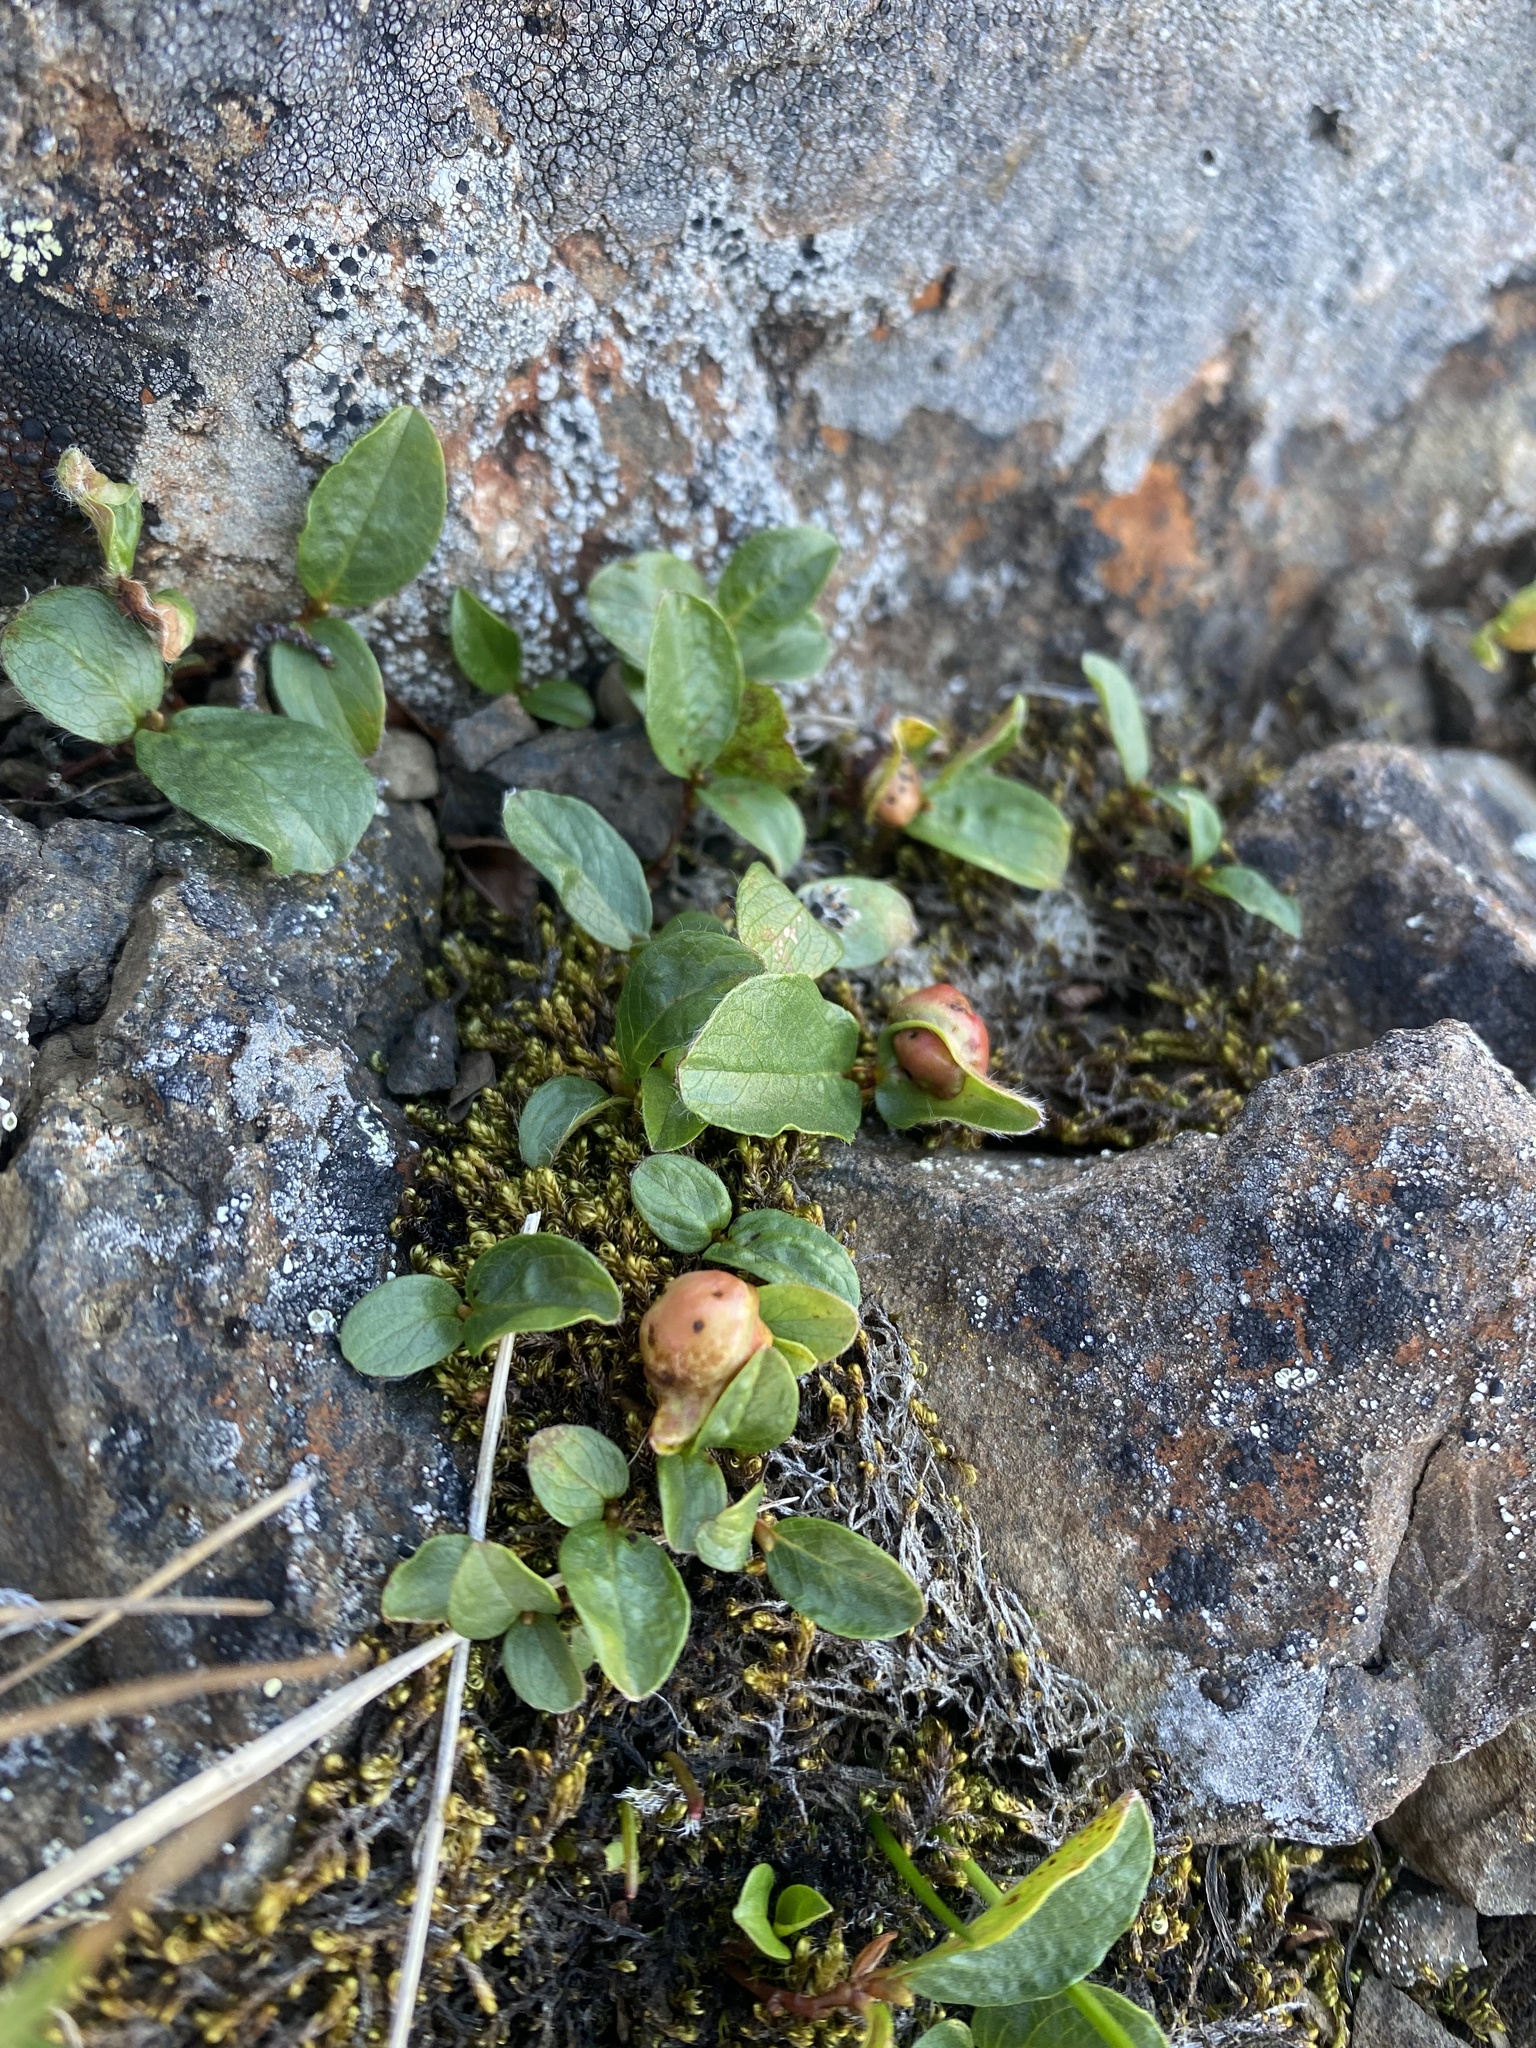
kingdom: Plantae
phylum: Tracheophyta
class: Magnoliopsida
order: Malpighiales
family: Salicaceae
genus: Salix
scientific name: Salix polaris
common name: Polar willow
